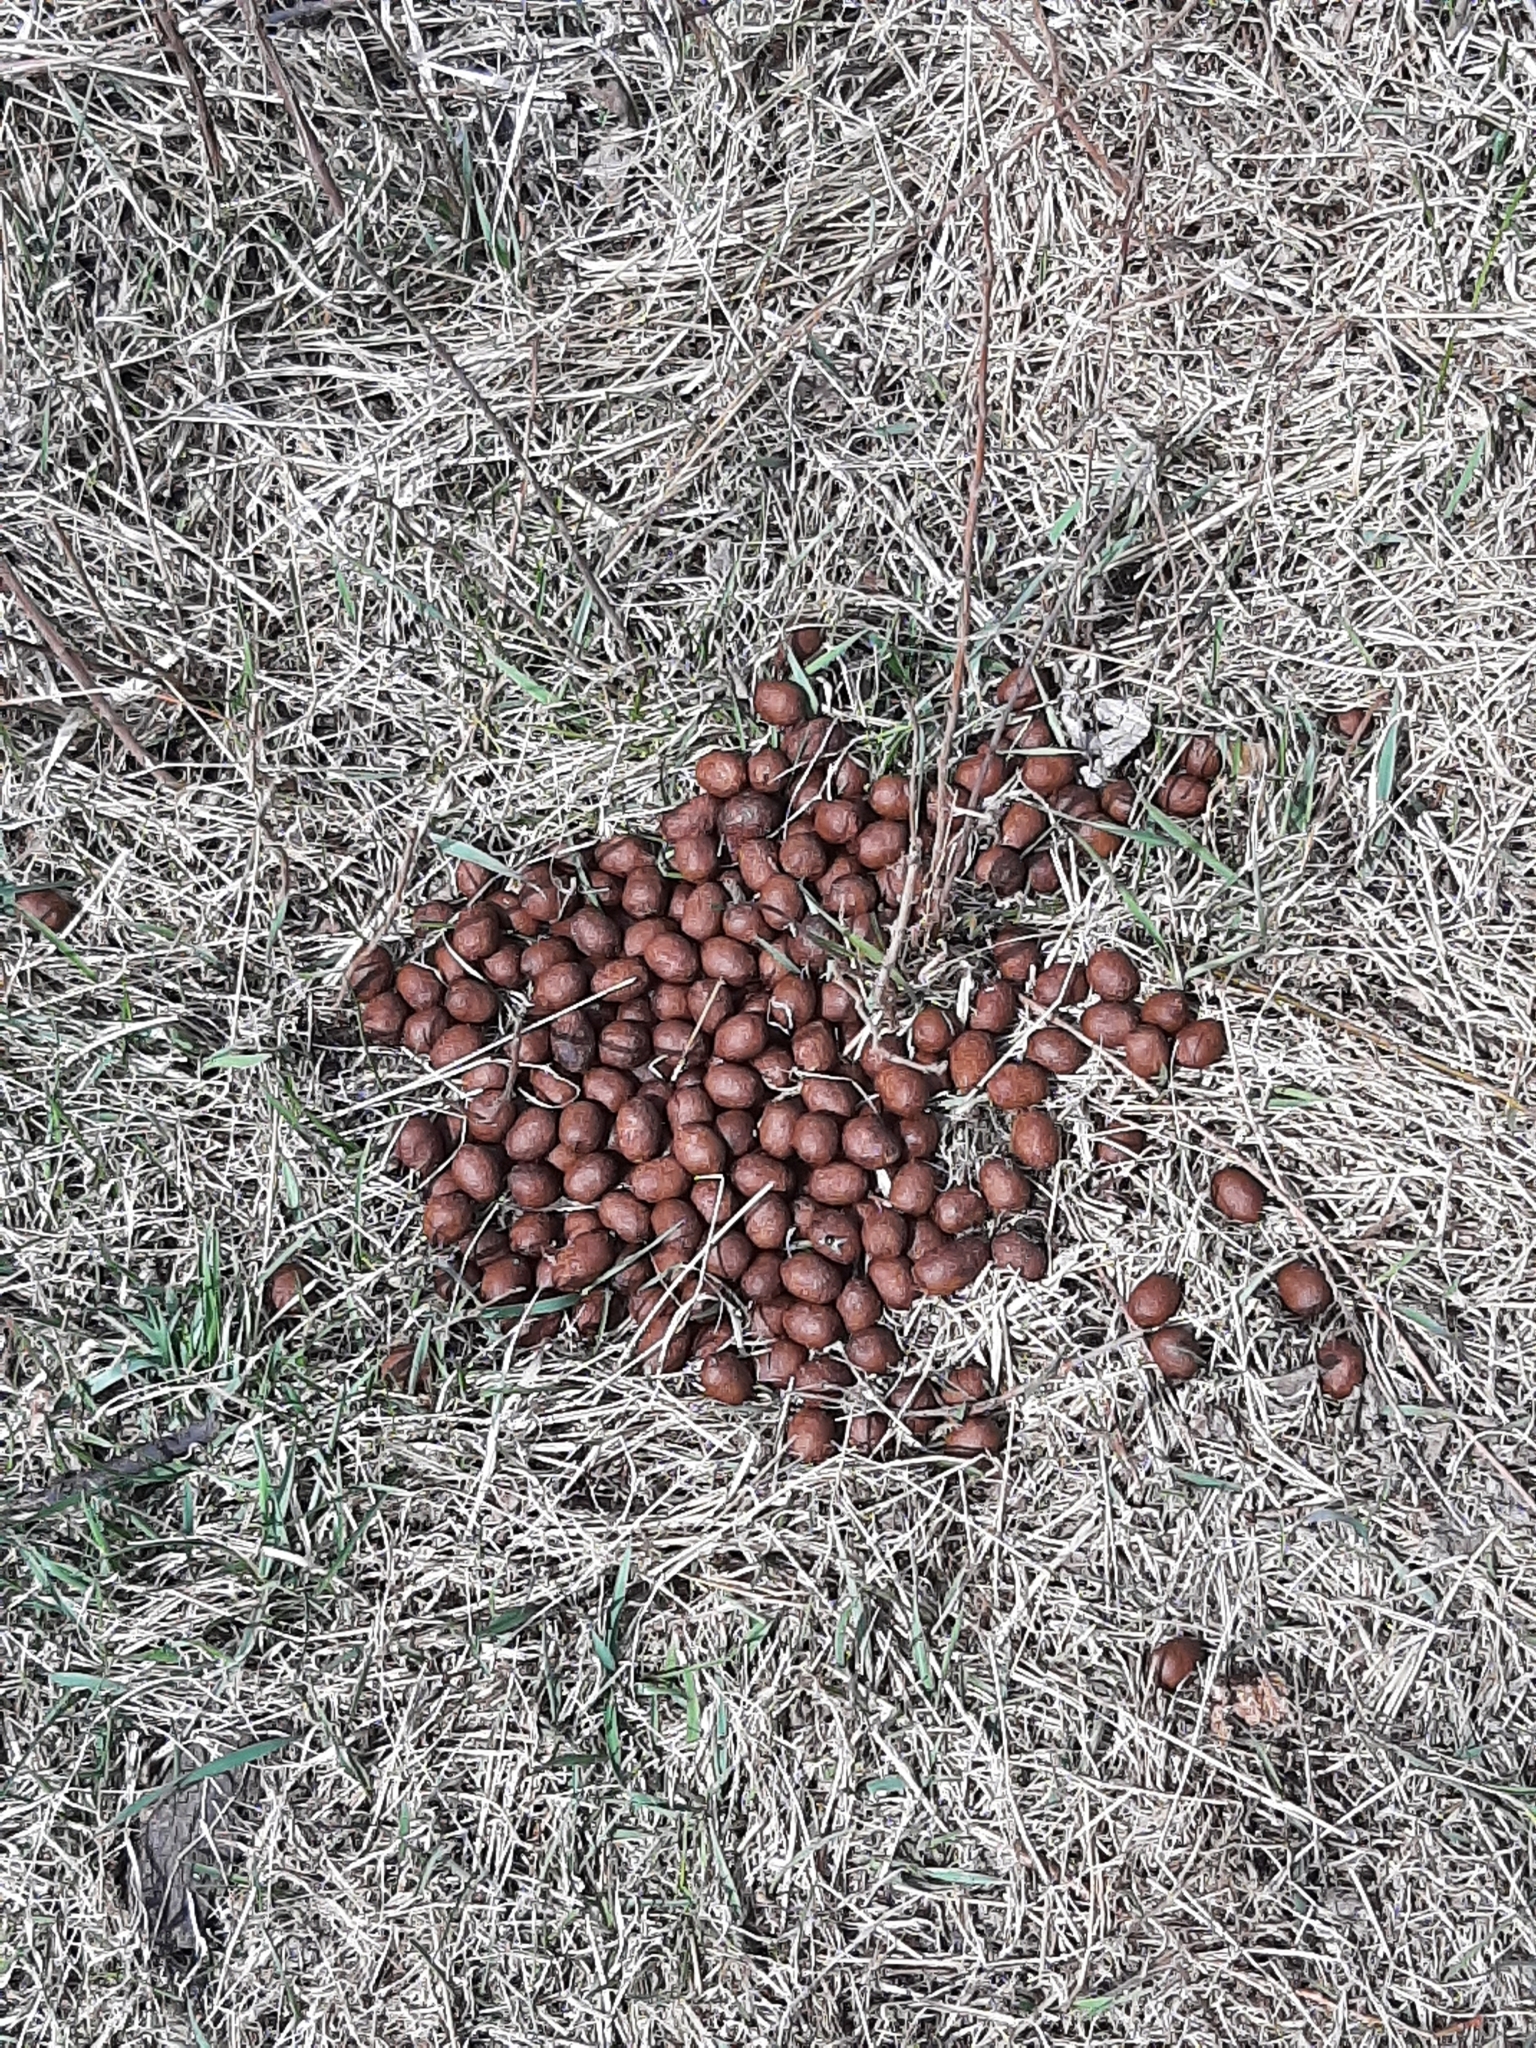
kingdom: Animalia
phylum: Chordata
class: Mammalia
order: Artiodactyla
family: Cervidae
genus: Alces
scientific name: Alces alces
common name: Moose
